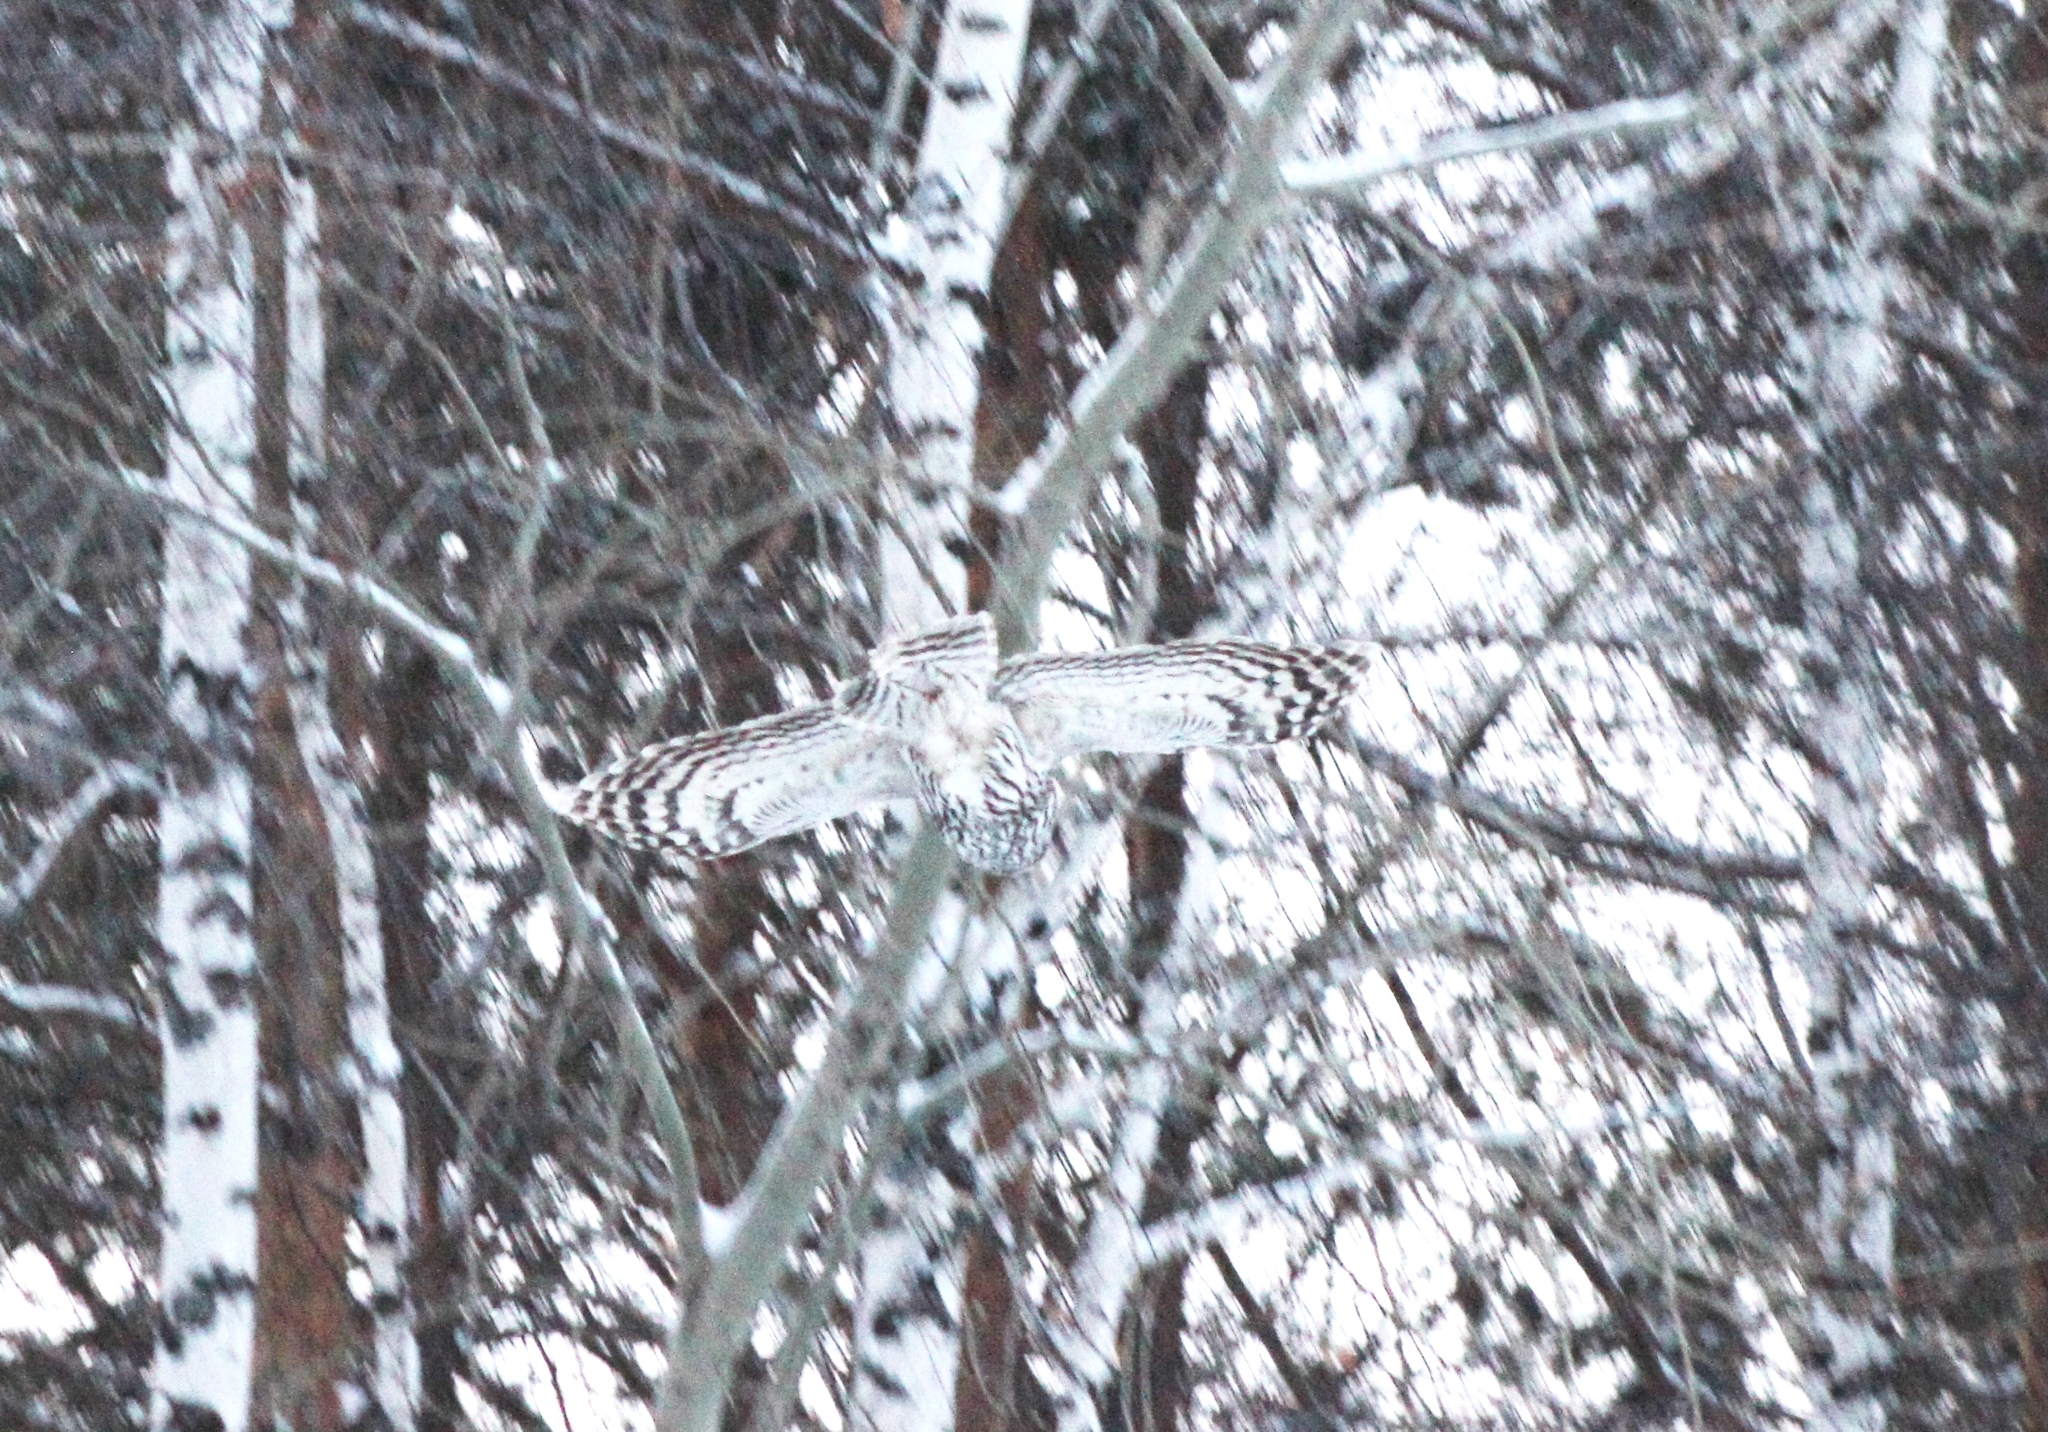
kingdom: Animalia
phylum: Chordata
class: Aves
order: Strigiformes
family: Strigidae
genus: Strix
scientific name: Strix uralensis
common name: Ural owl
